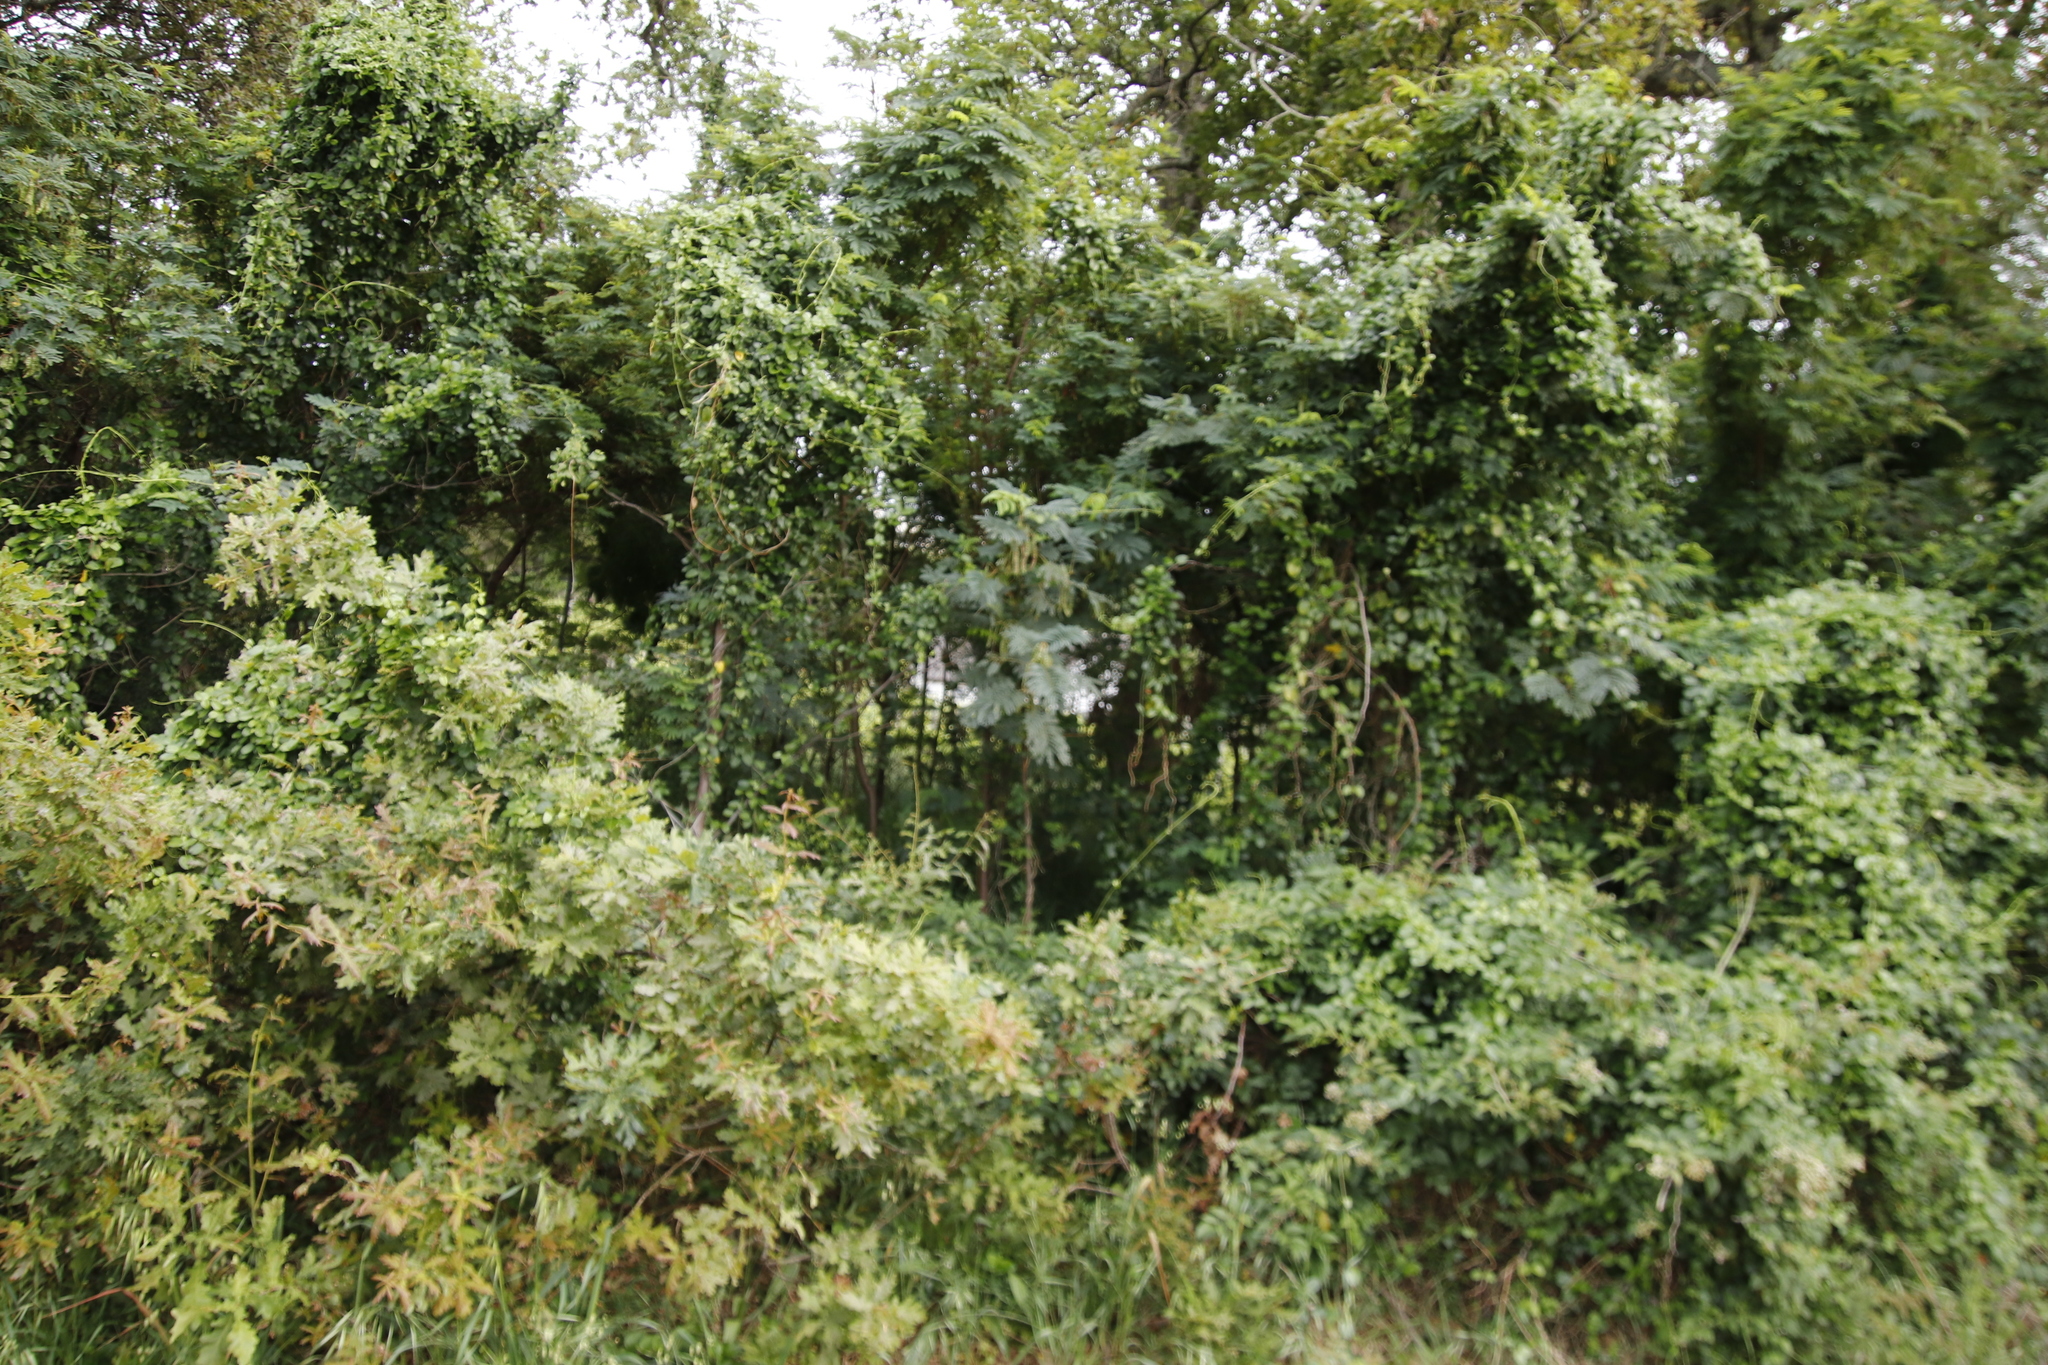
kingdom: Plantae
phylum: Tracheophyta
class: Magnoliopsida
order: Fabales
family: Fabaceae
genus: Paraserianthes
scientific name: Paraserianthes lophantha
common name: Plume albizia
